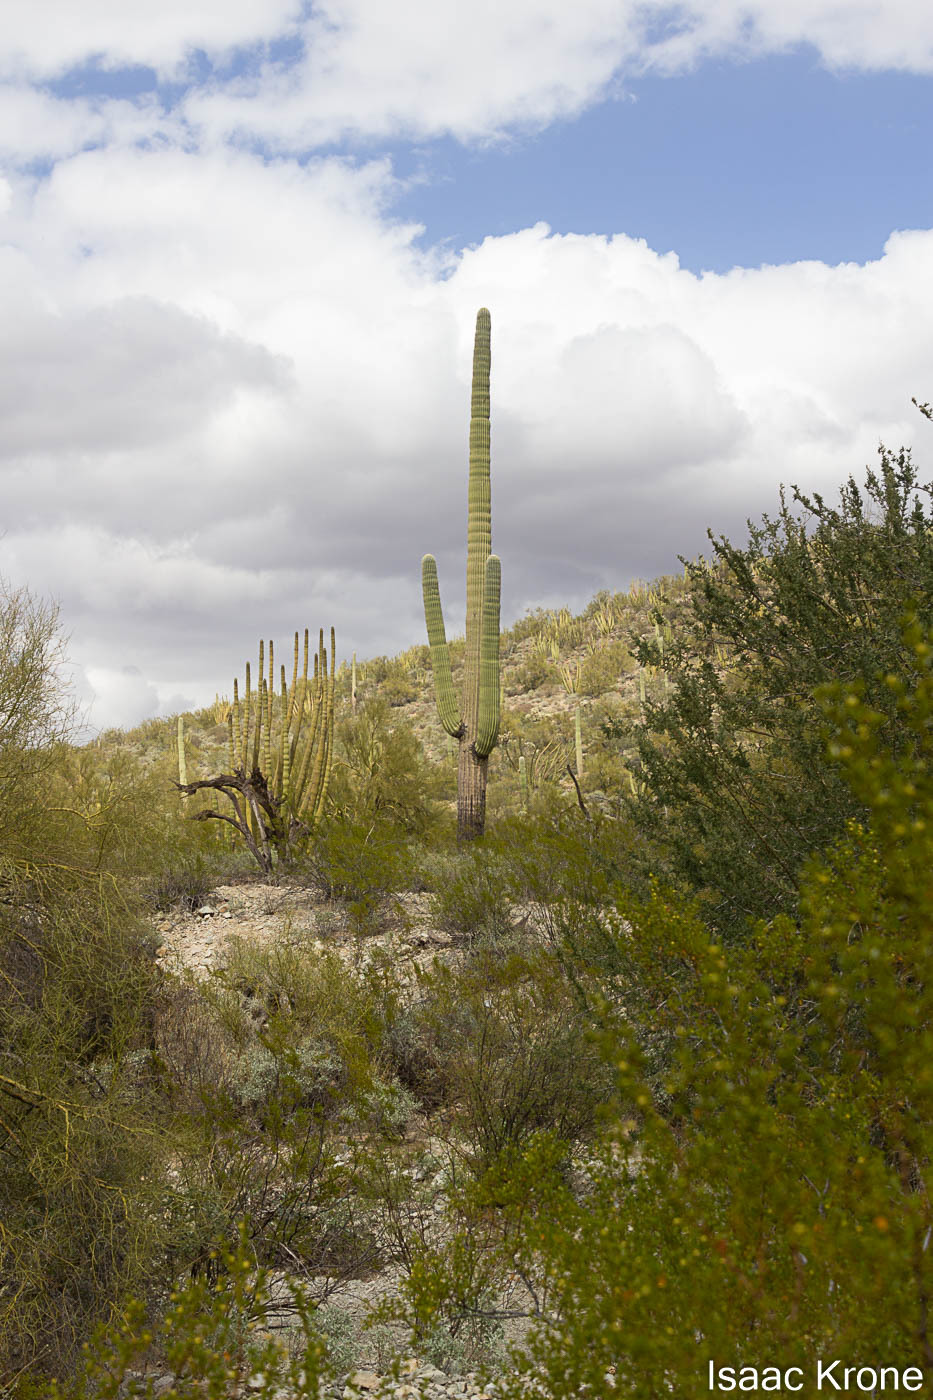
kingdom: Plantae
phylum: Tracheophyta
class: Magnoliopsida
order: Caryophyllales
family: Cactaceae
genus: Carnegiea
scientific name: Carnegiea gigantea
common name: Saguaro
